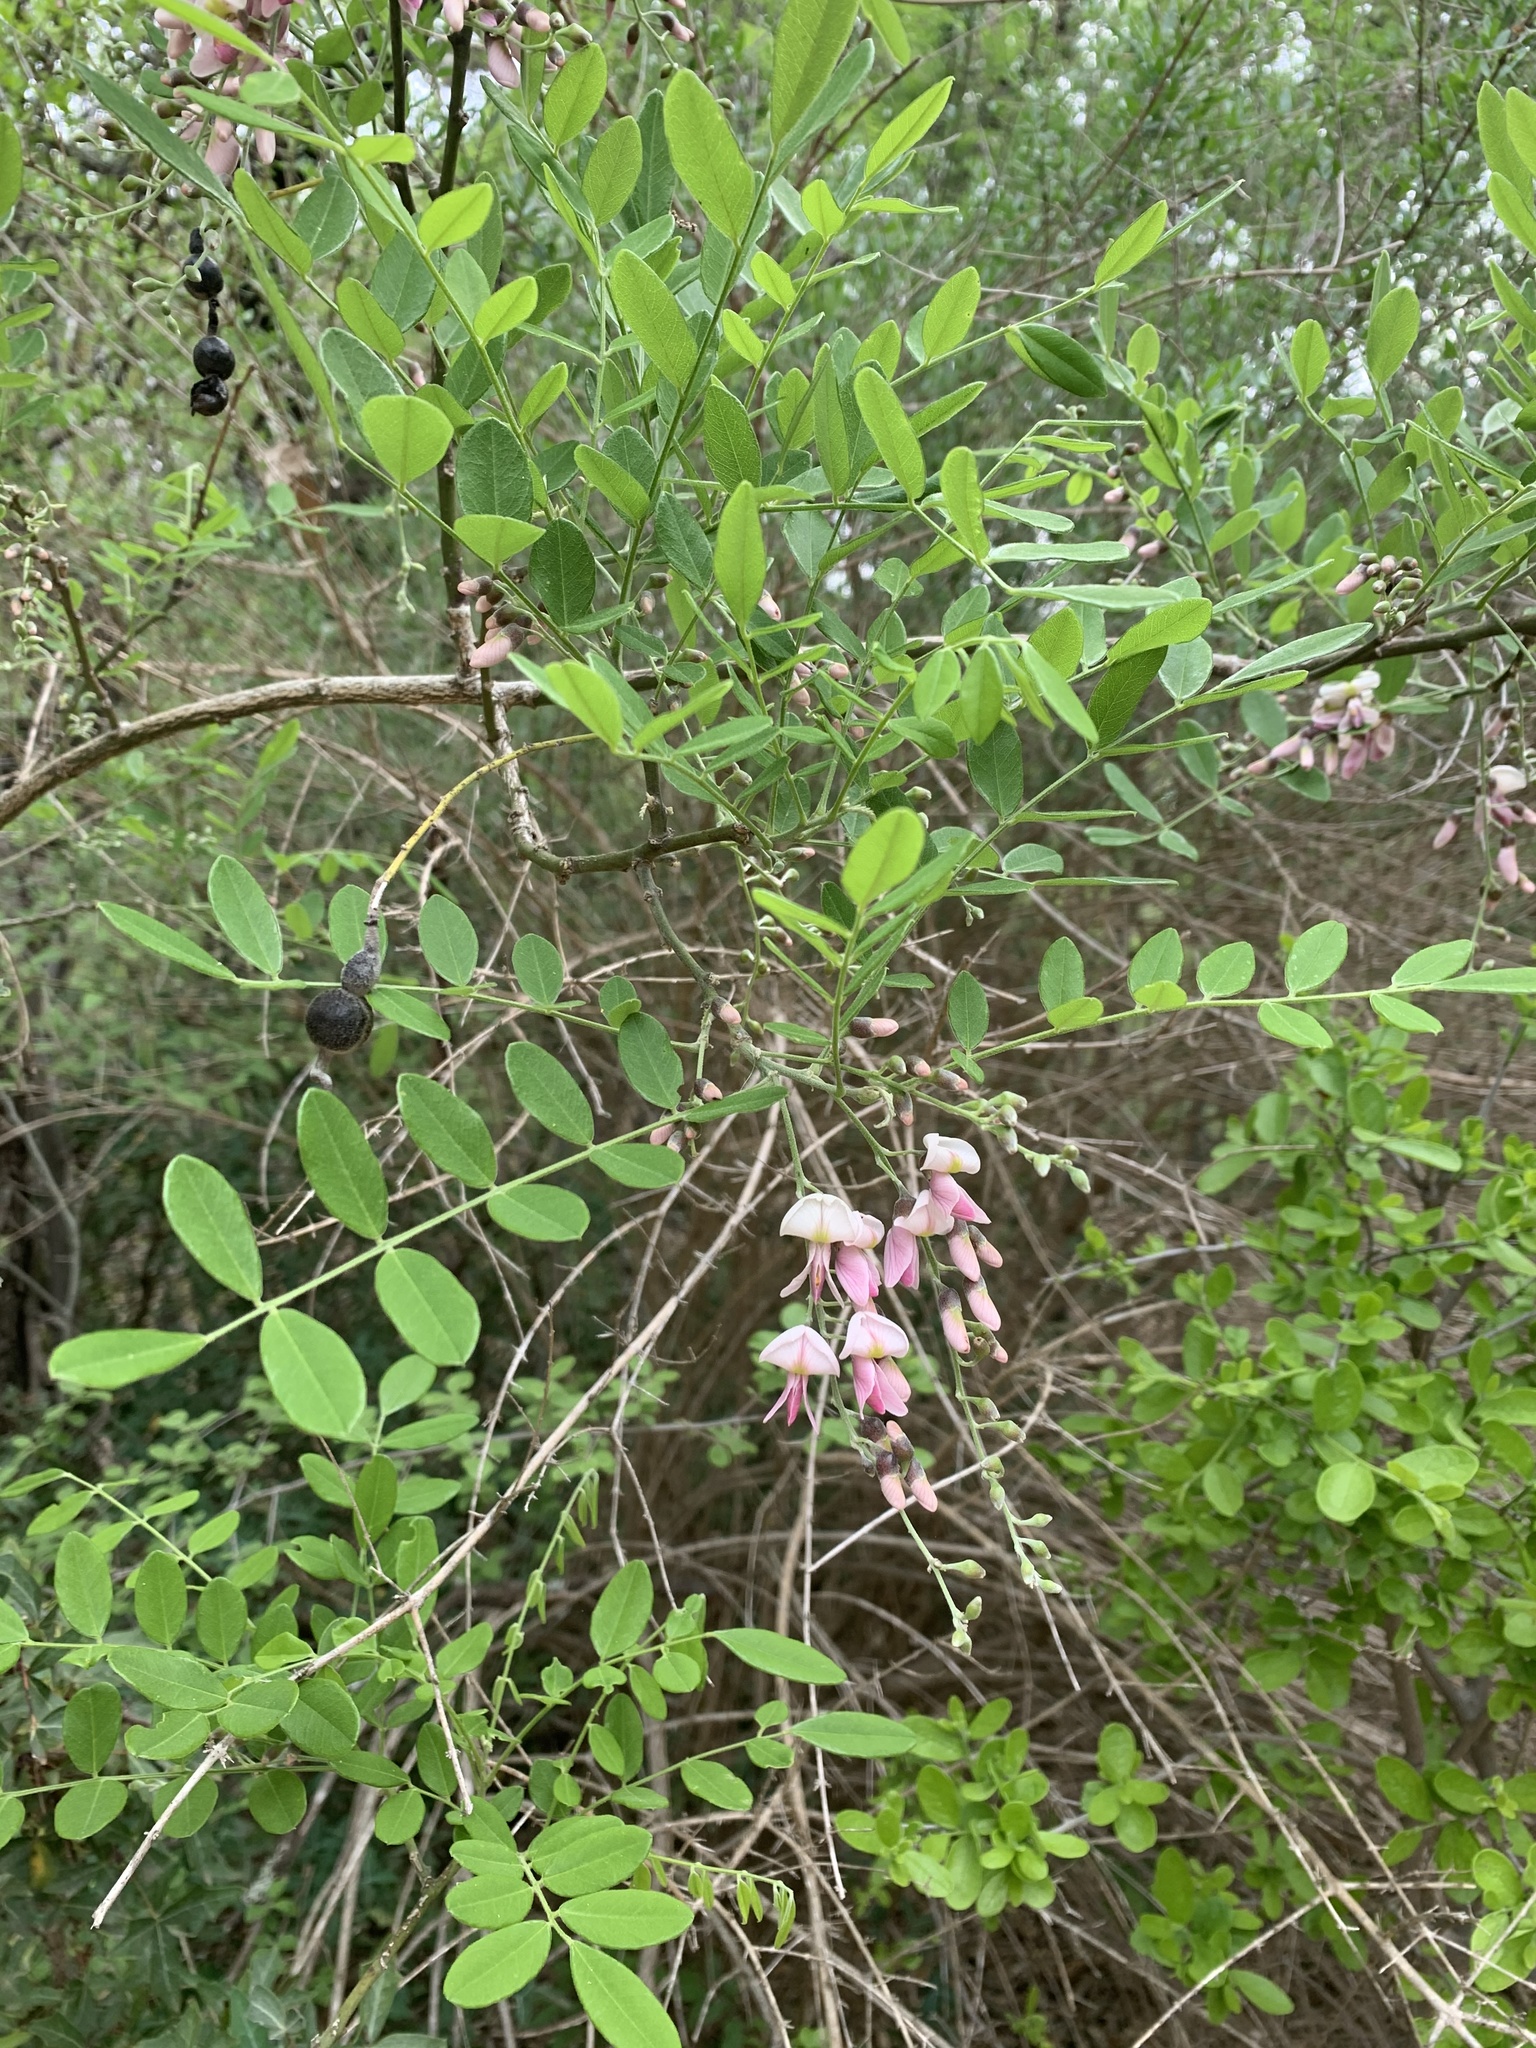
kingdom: Plantae
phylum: Tracheophyta
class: Magnoliopsida
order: Fabales
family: Fabaceae
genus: Styphnolobium
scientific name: Styphnolobium affine
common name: Texas sophora
